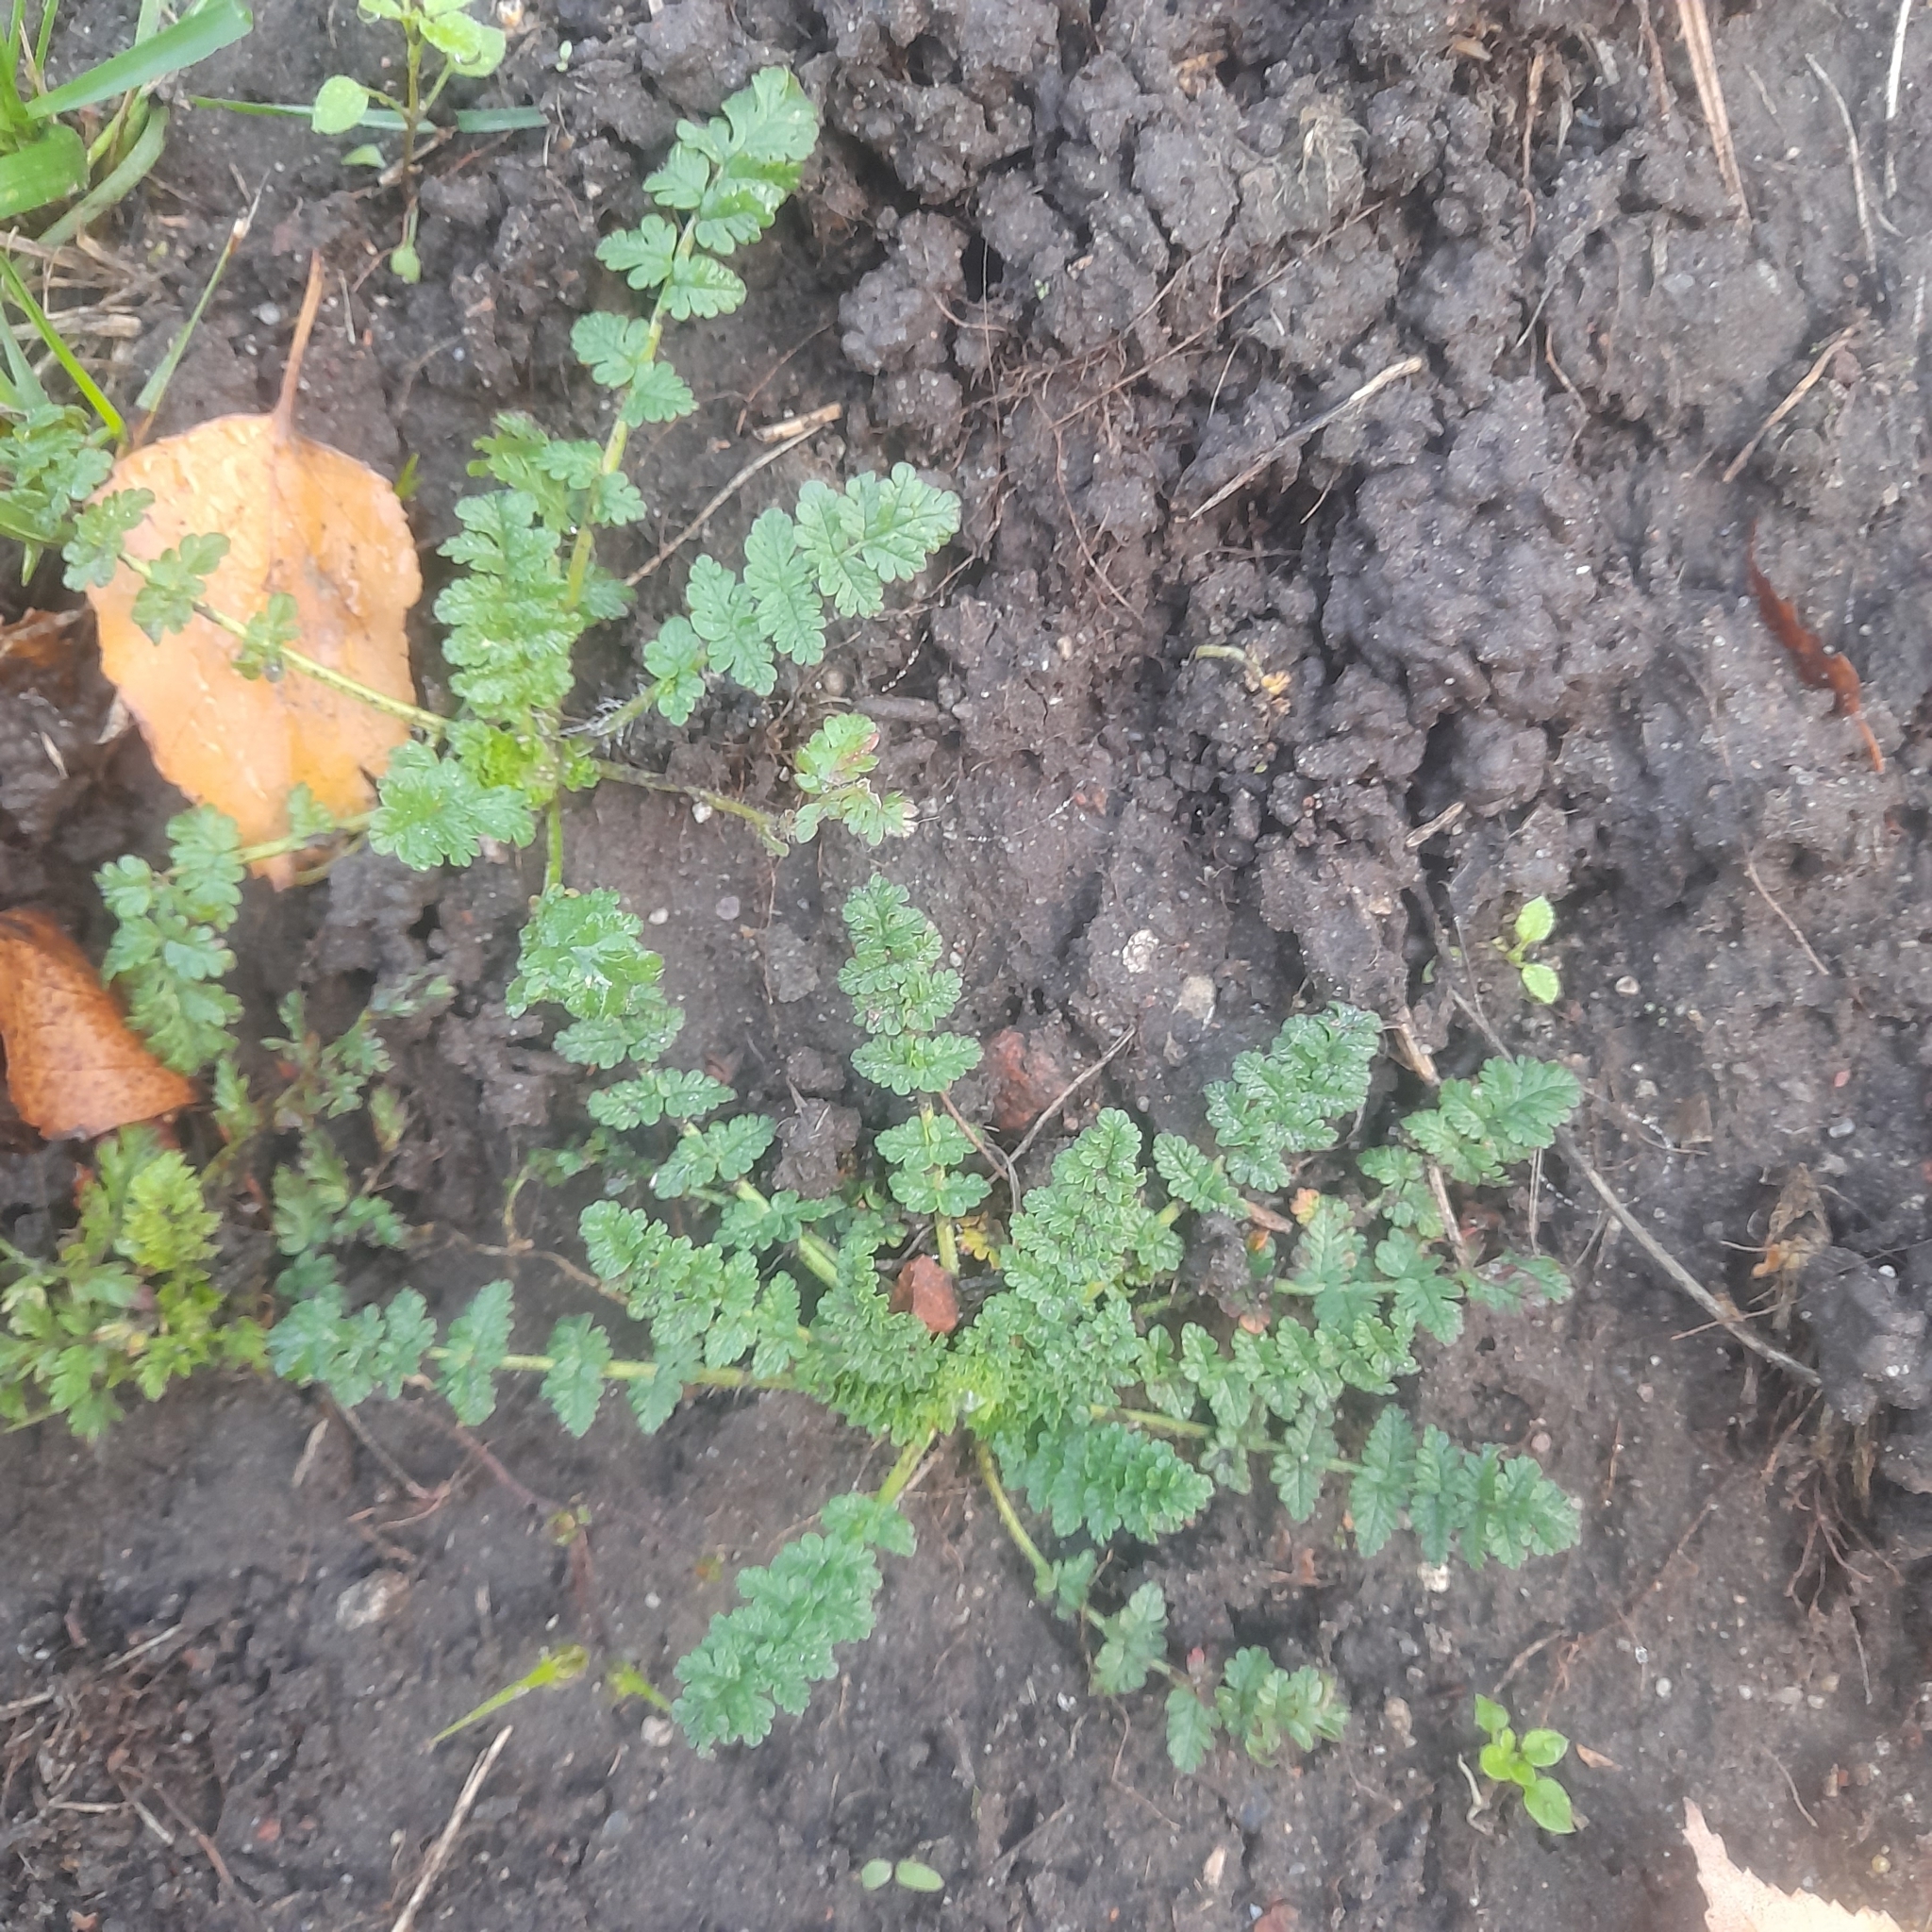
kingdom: Plantae
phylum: Tracheophyta
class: Magnoliopsida
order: Geraniales
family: Geraniaceae
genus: Erodium
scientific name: Erodium cicutarium
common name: Common stork's-bill
